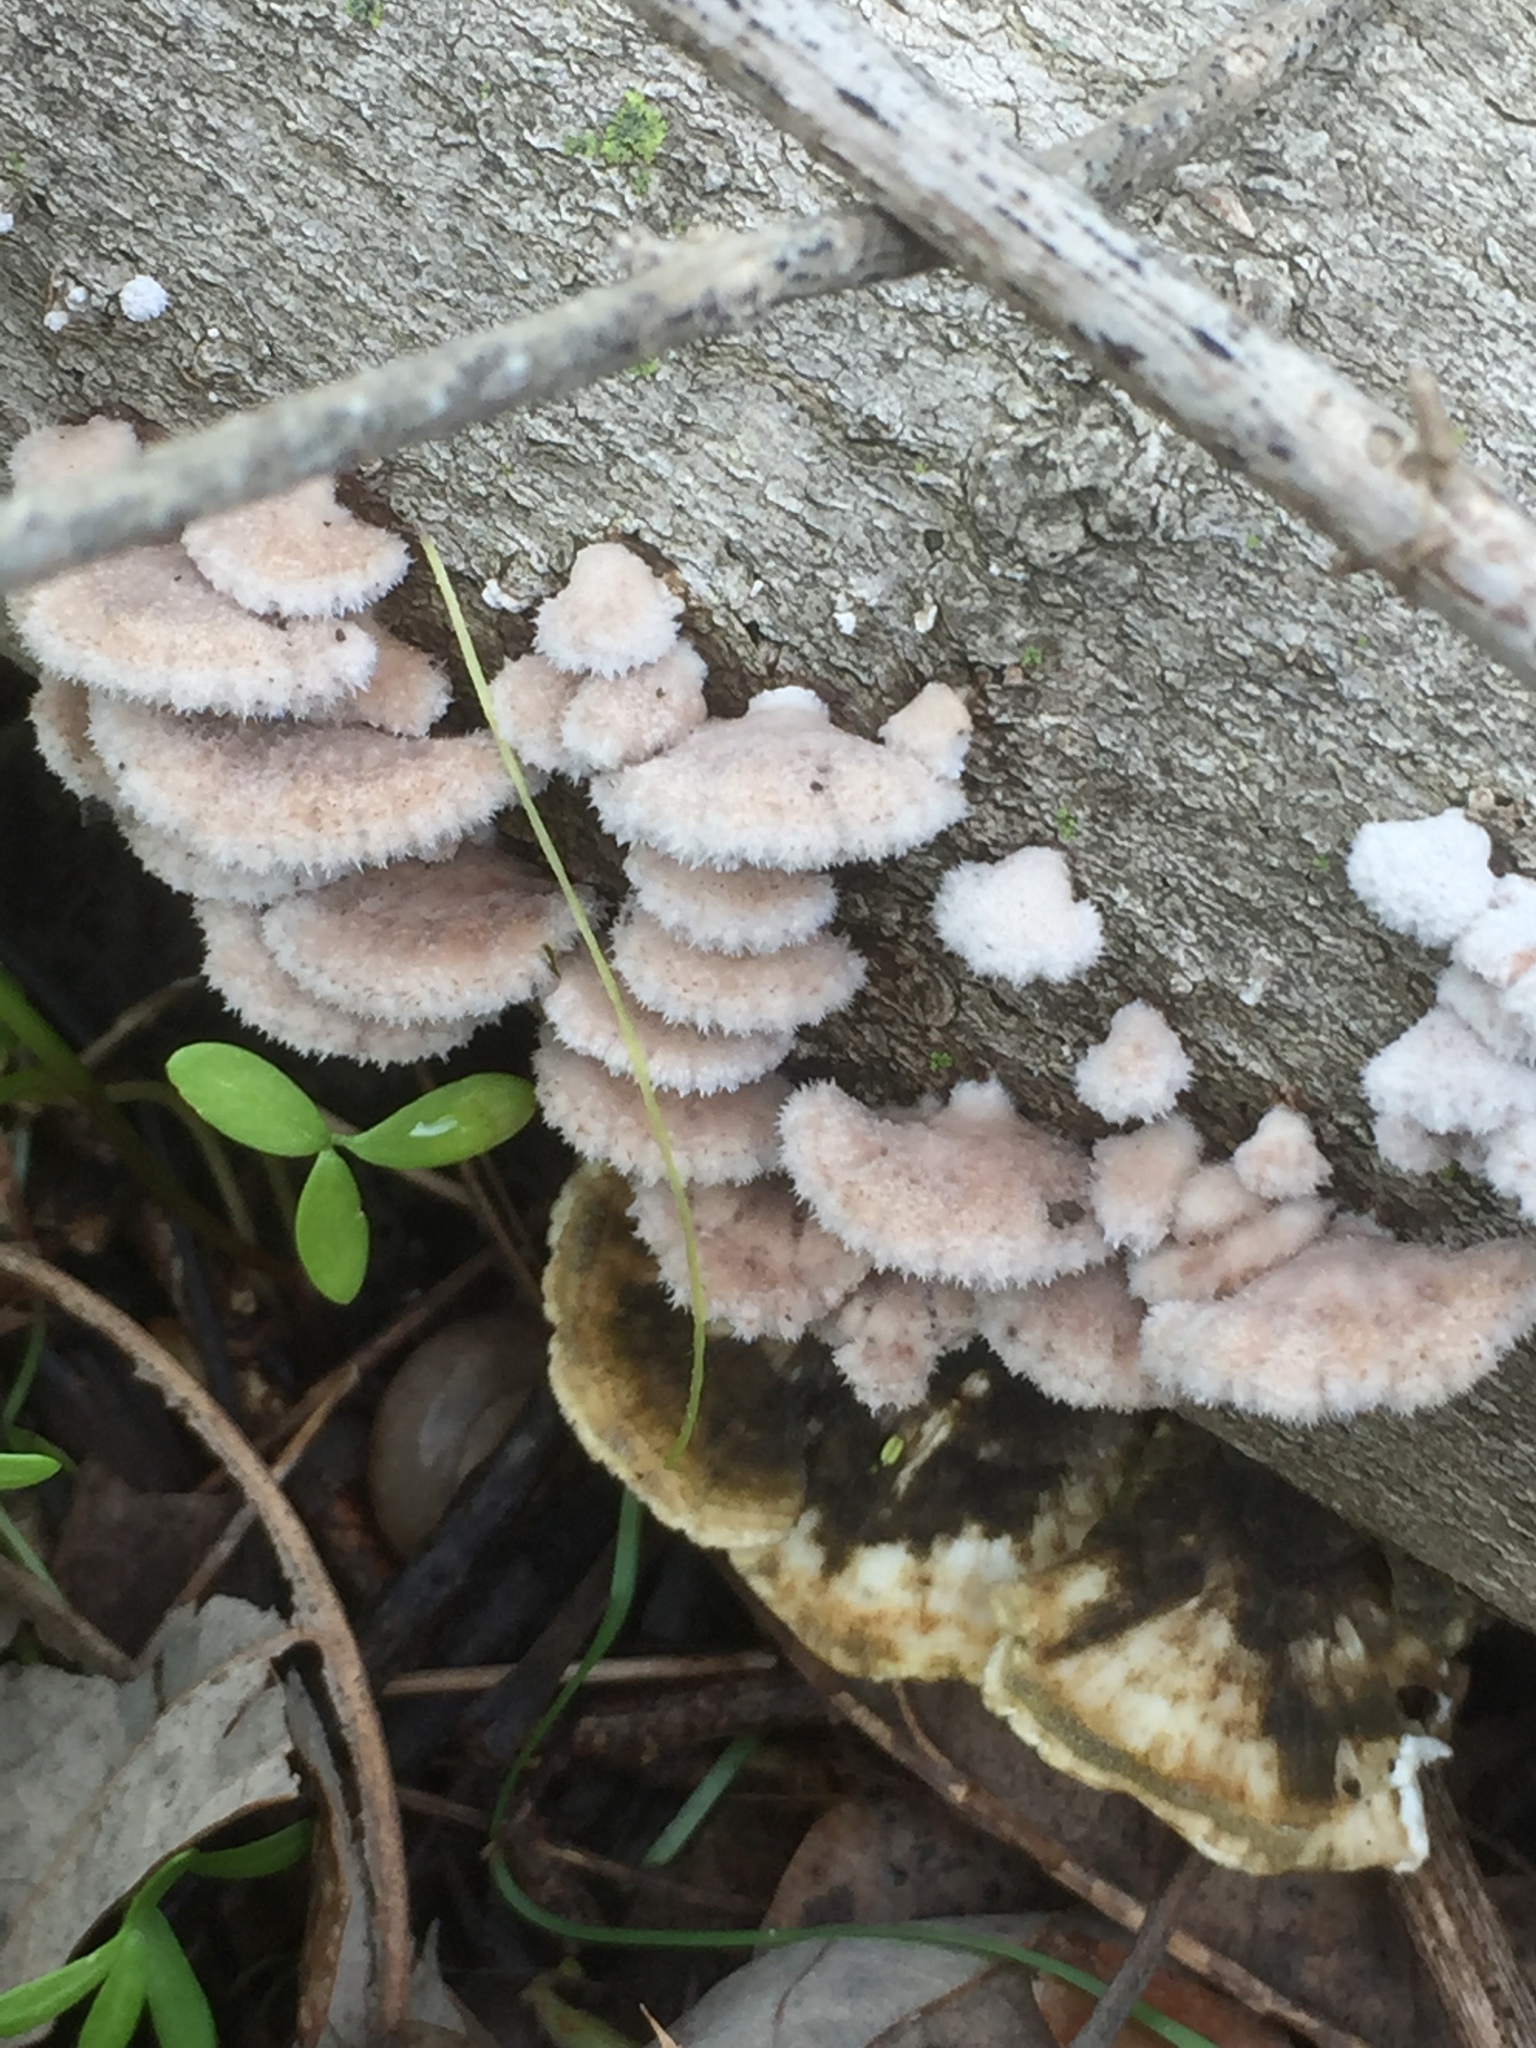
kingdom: Fungi
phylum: Basidiomycota
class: Agaricomycetes
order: Agaricales
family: Schizophyllaceae
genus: Schizophyllum
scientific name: Schizophyllum commune
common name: Common porecrust
